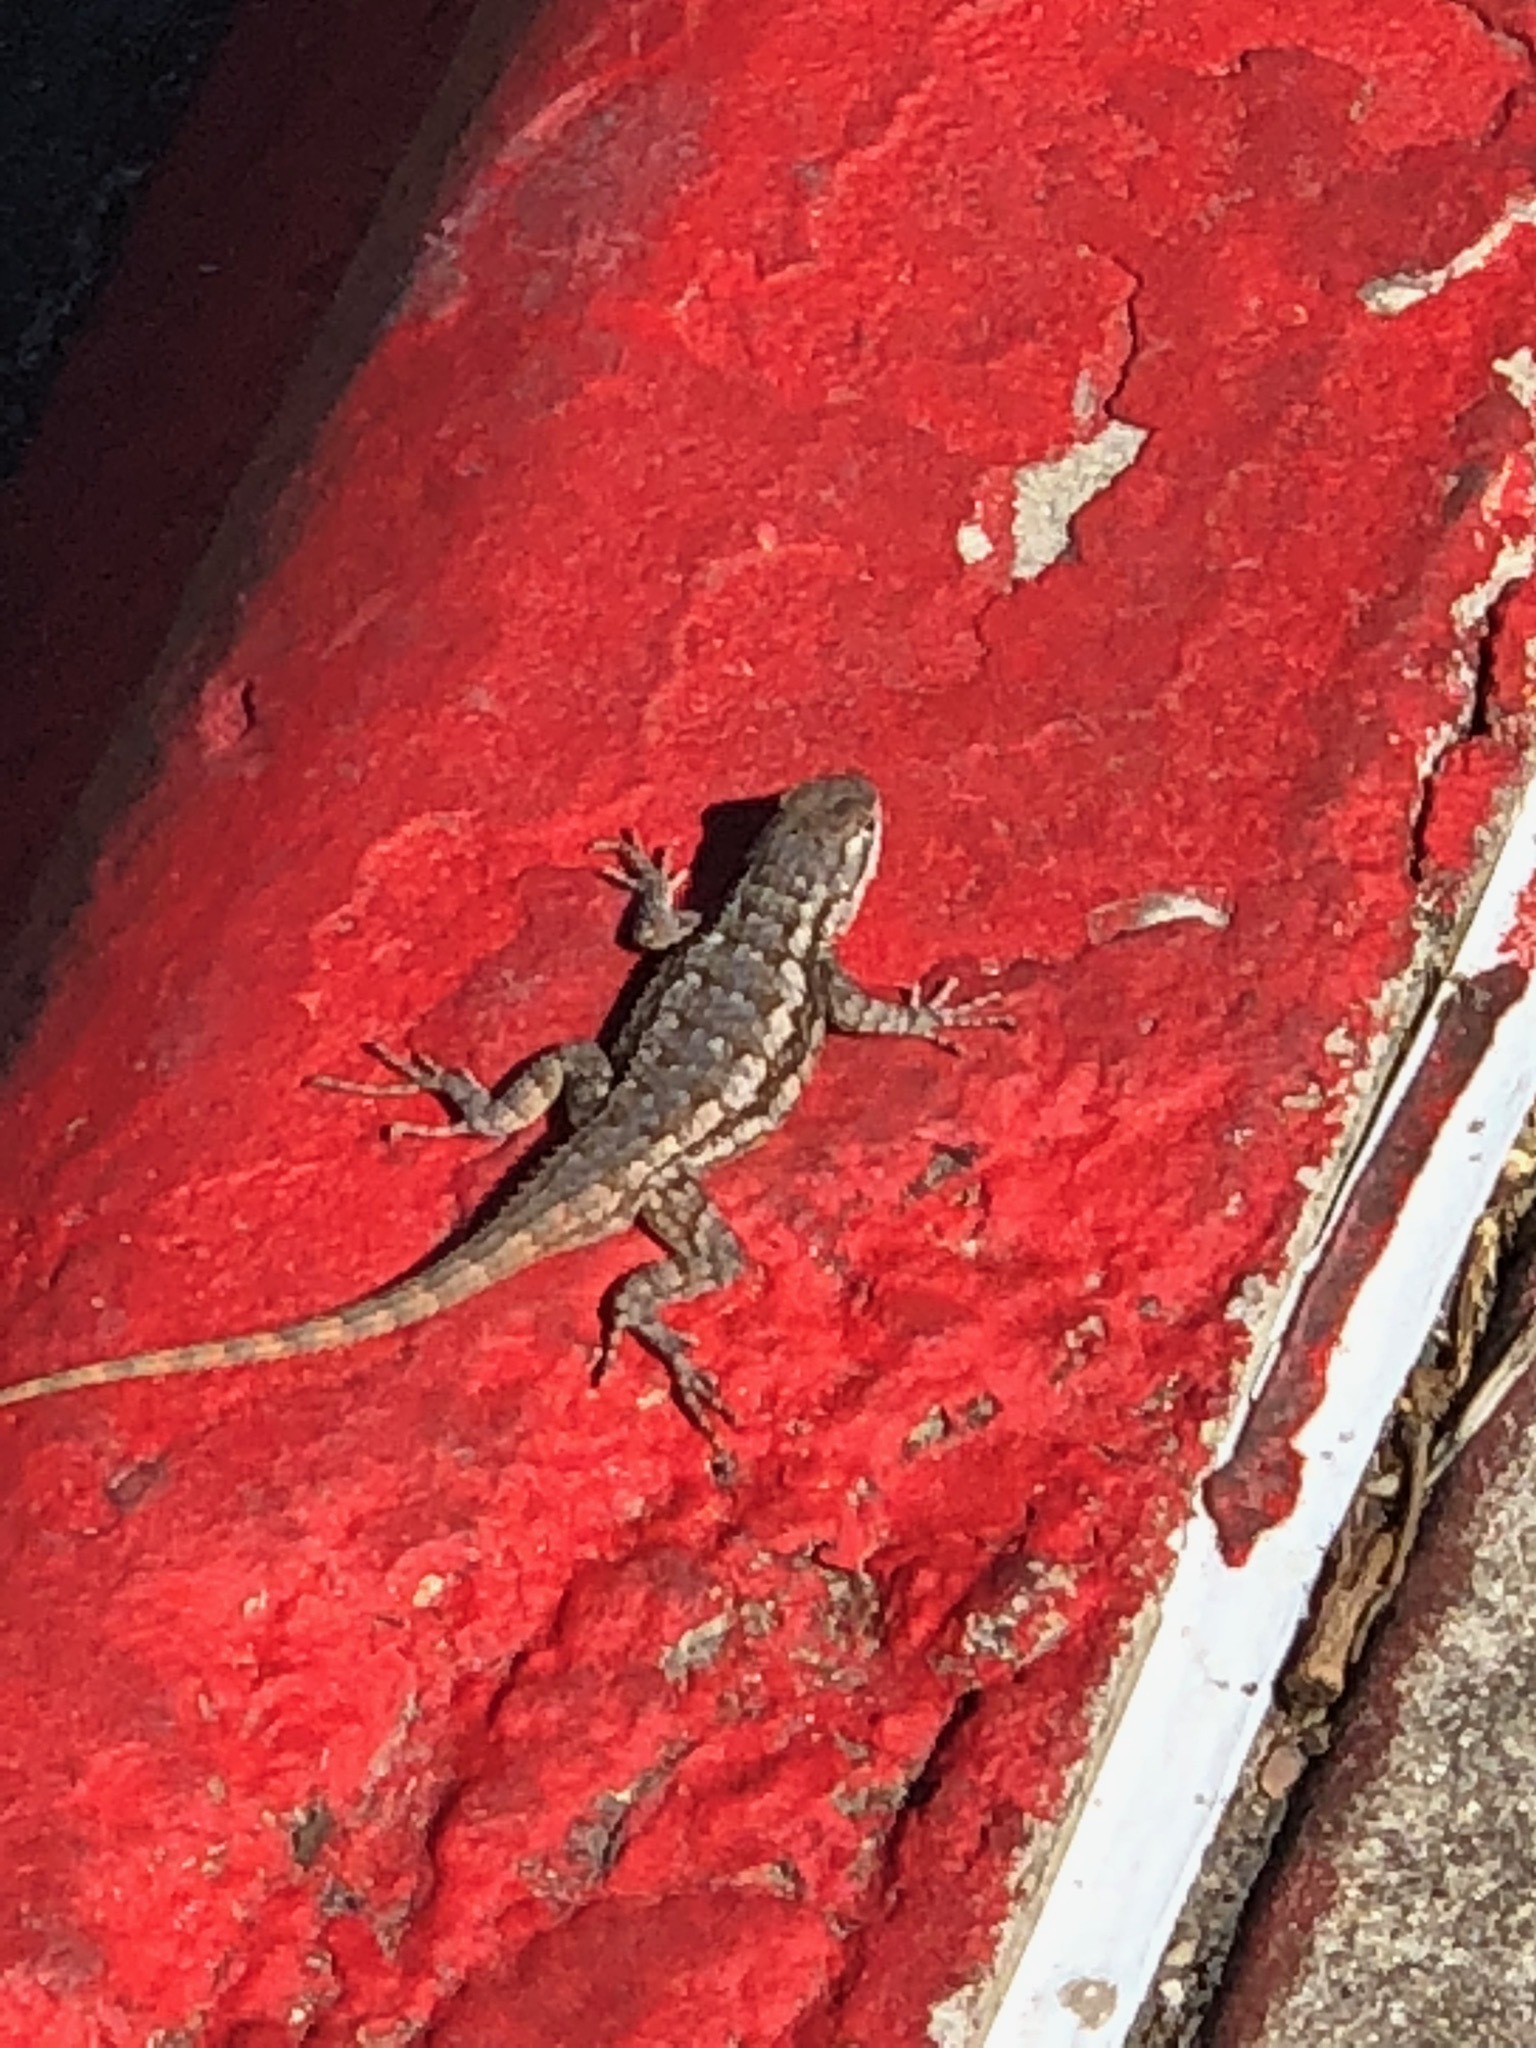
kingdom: Animalia
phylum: Chordata
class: Squamata
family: Phrynosomatidae
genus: Sceloporus
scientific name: Sceloporus olivaceus
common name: Texas spiny lizard
